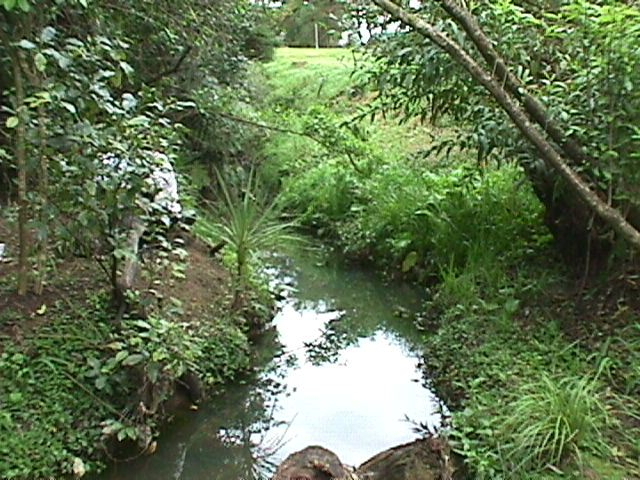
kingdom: Plantae
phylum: Tracheophyta
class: Liliopsida
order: Asparagales
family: Asparagaceae
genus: Cordyline
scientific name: Cordyline australis
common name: Cabbage-palm
